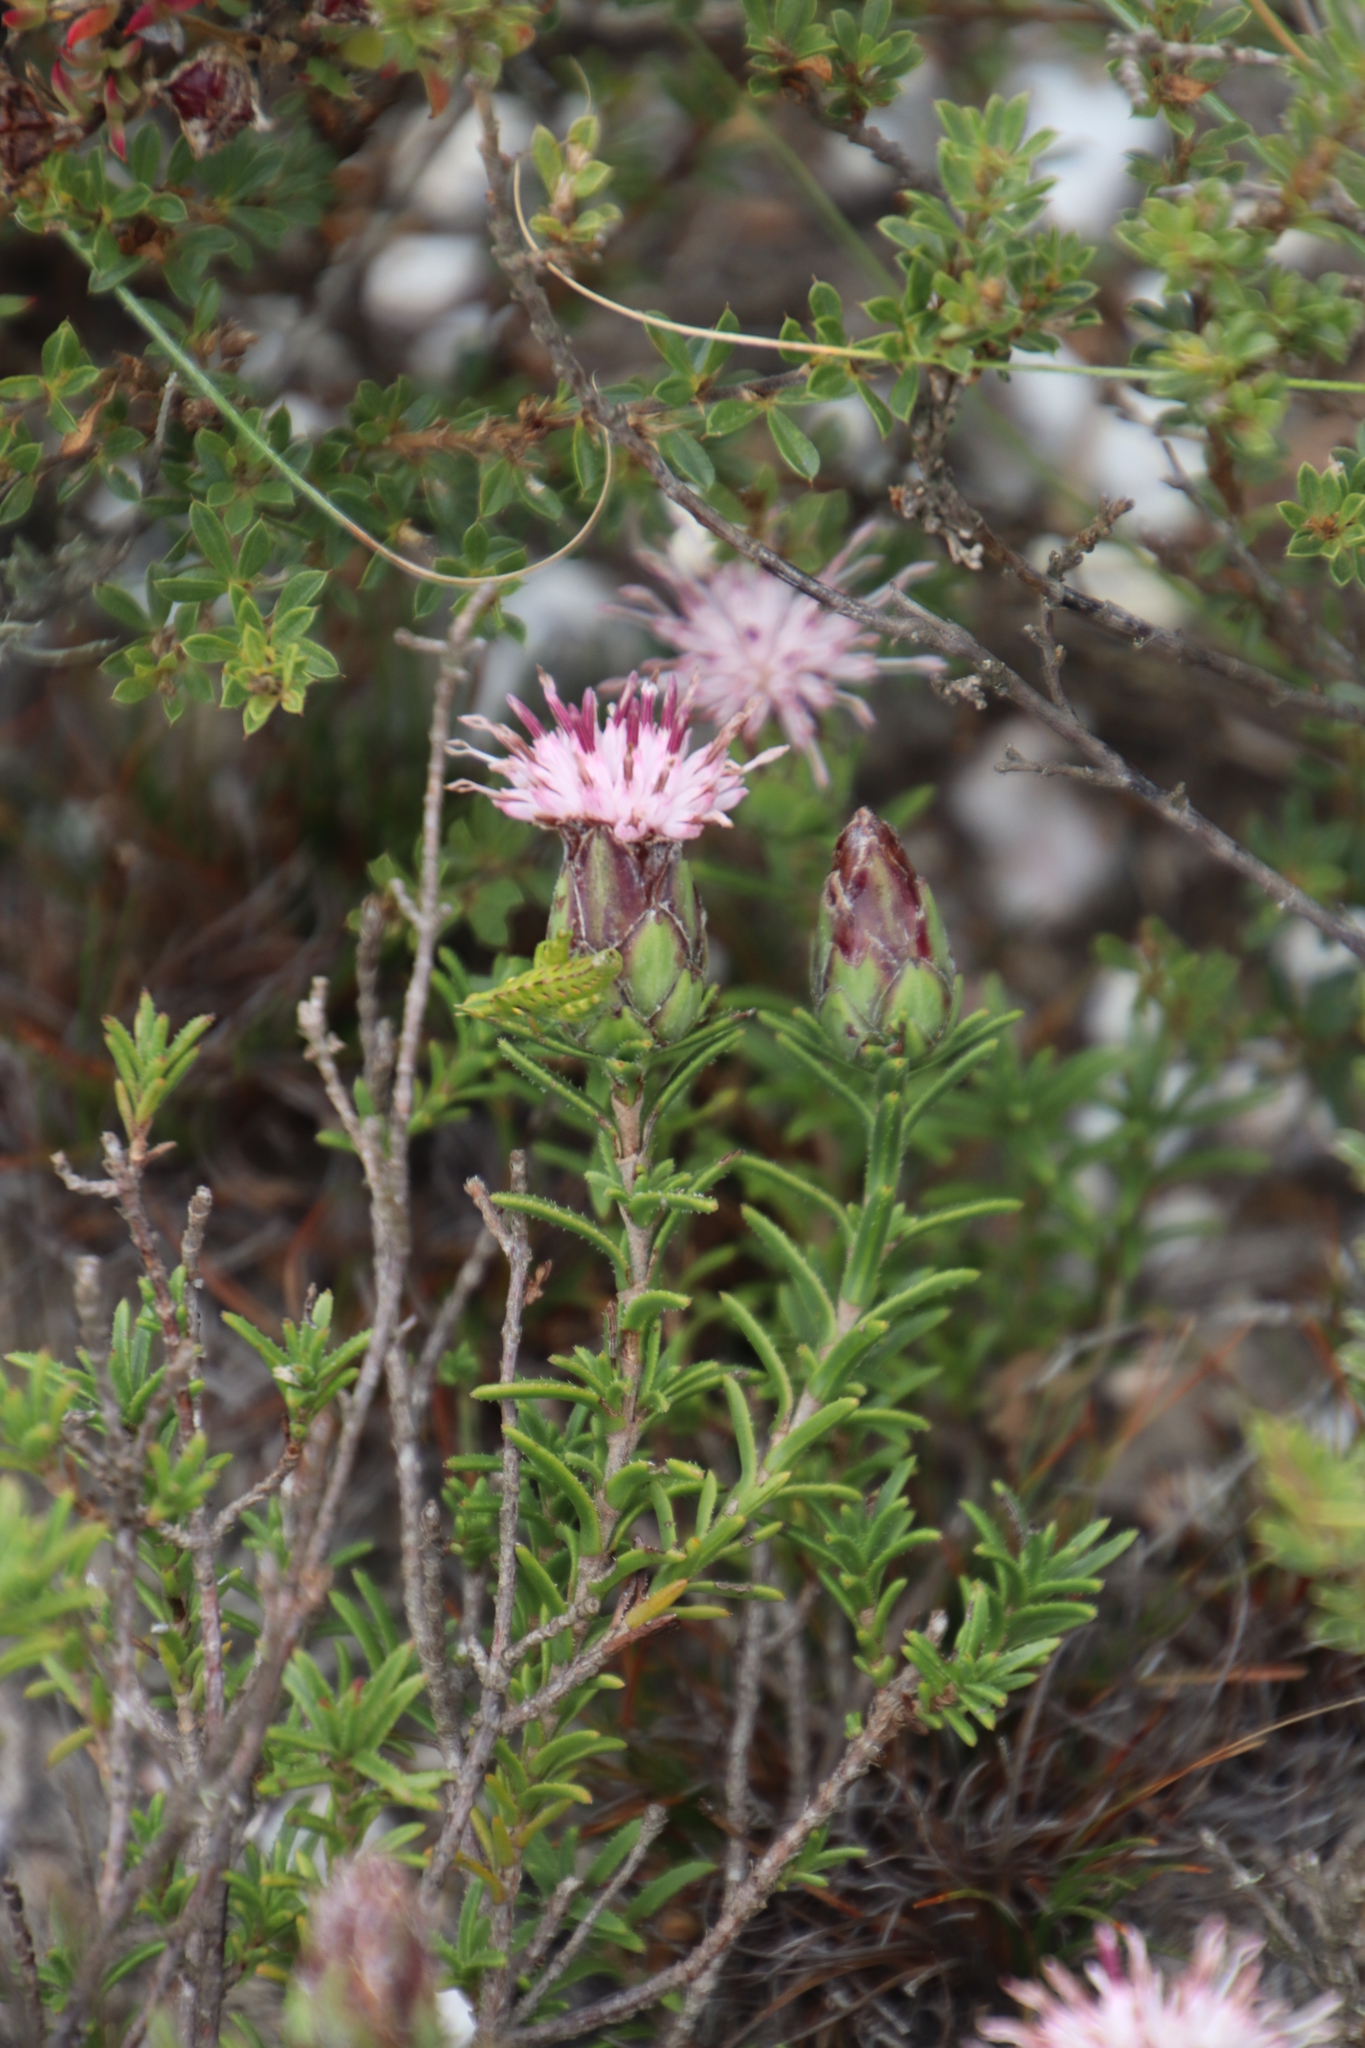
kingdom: Plantae
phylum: Tracheophyta
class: Magnoliopsida
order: Asterales
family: Asteraceae
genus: Pteronia
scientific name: Pteronia hirsuta
